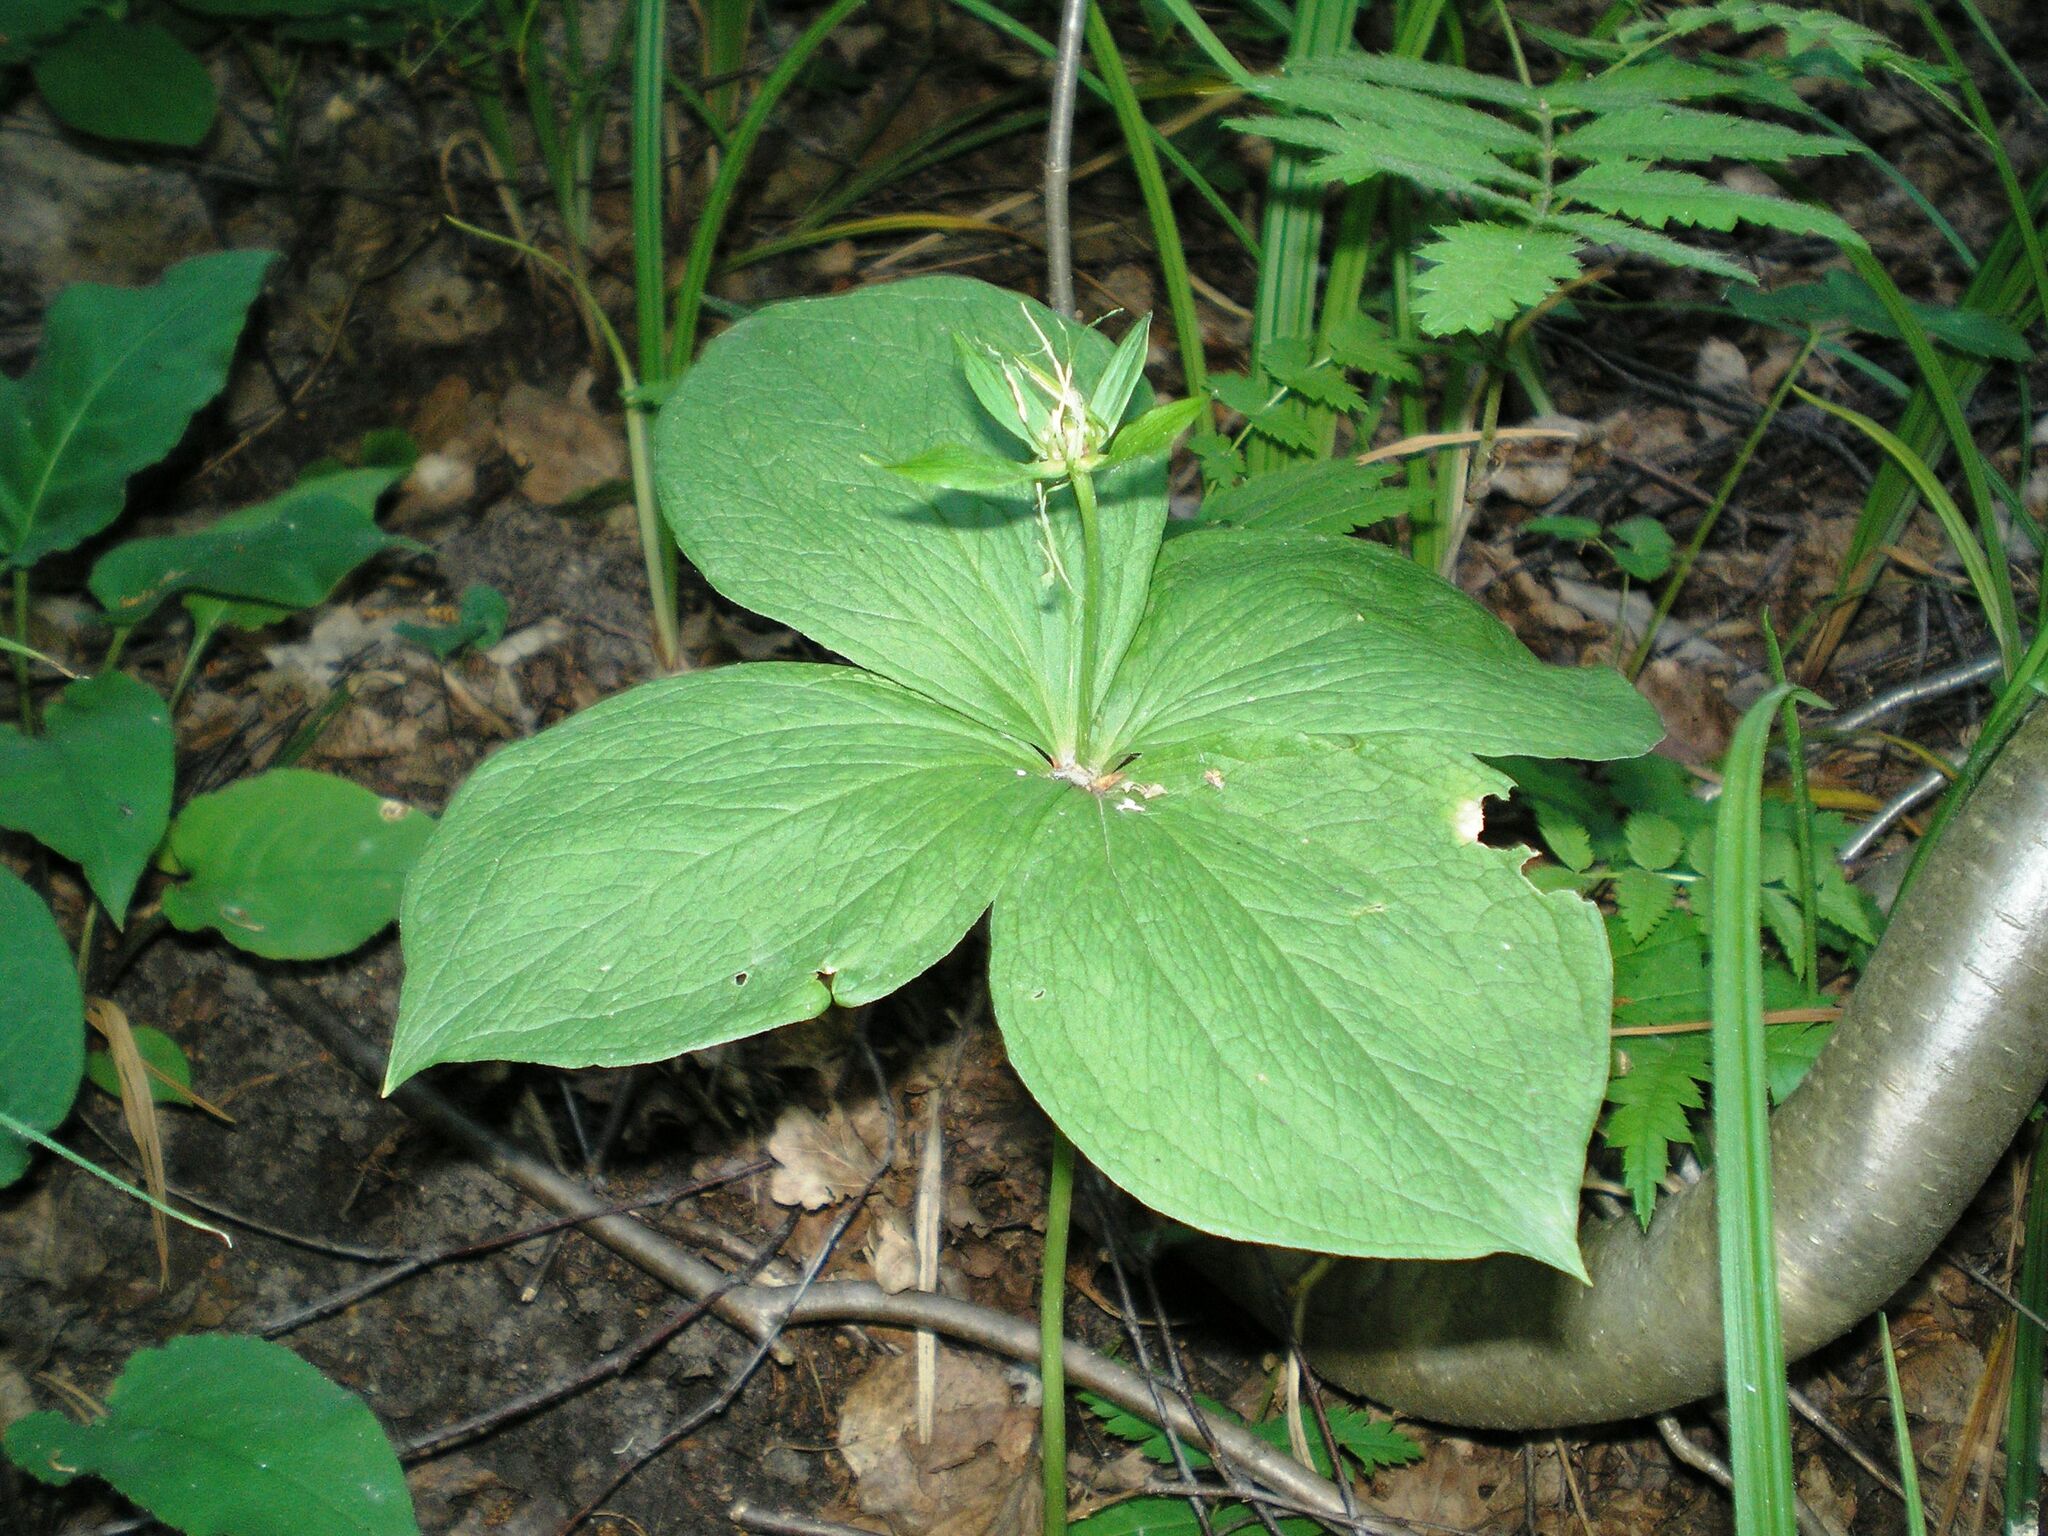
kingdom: Plantae
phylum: Tracheophyta
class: Liliopsida
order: Liliales
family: Melanthiaceae
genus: Paris
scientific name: Paris quadrifolia
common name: Herb-paris
